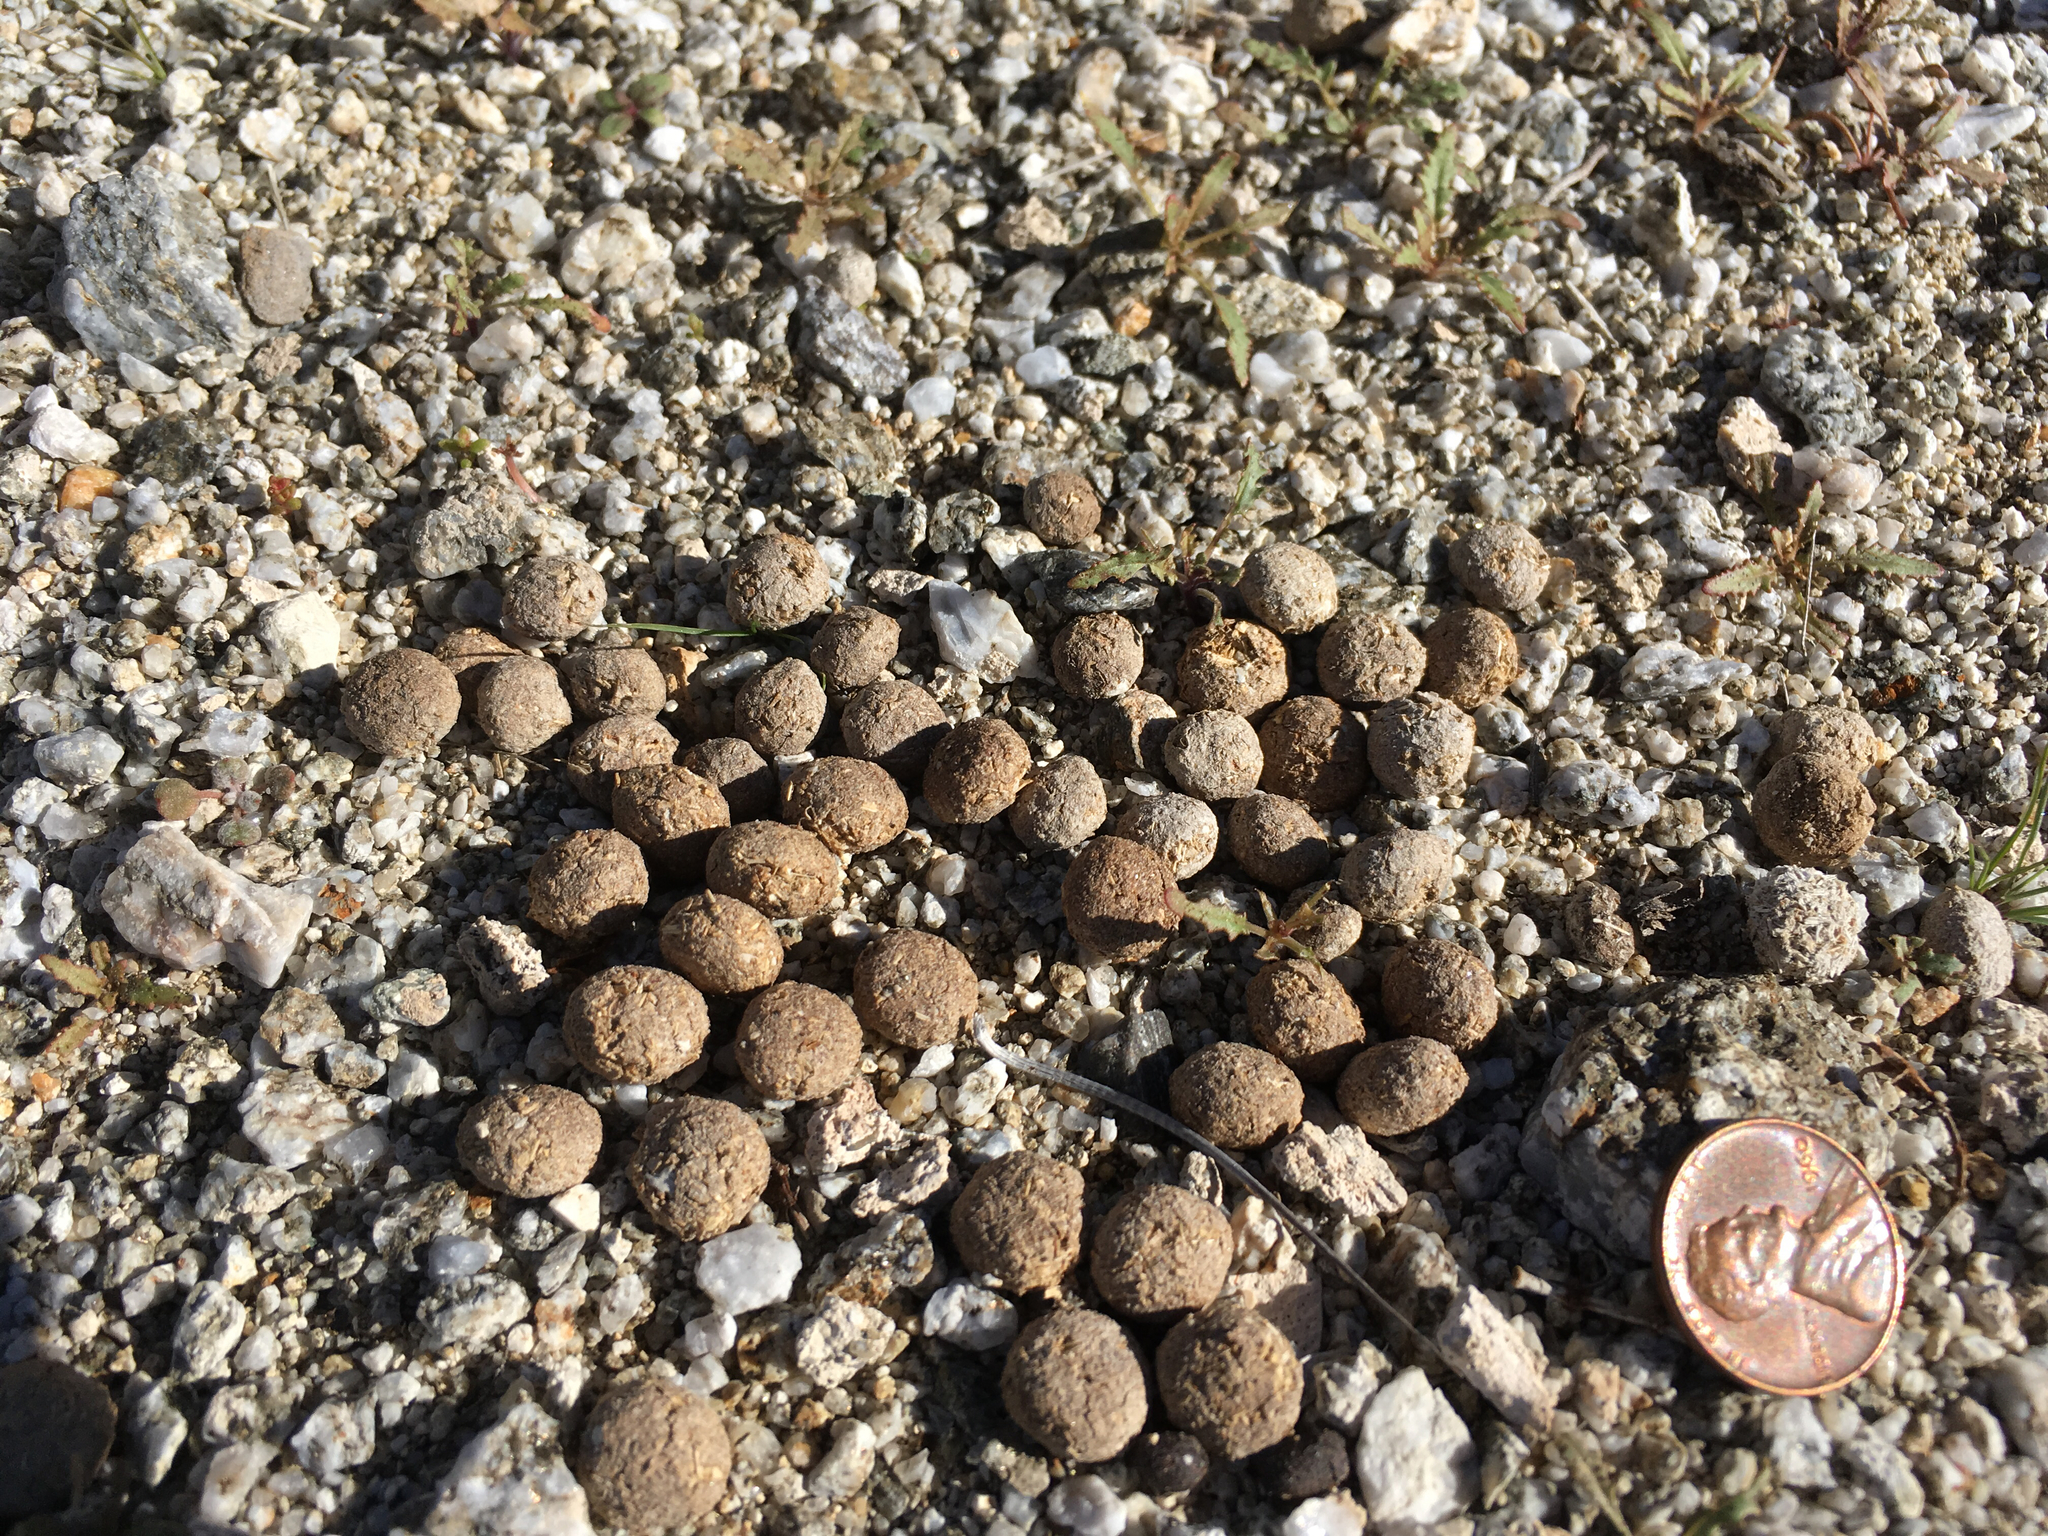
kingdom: Animalia
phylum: Chordata
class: Mammalia
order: Lagomorpha
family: Leporidae
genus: Lepus
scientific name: Lepus californicus
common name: Black-tailed jackrabbit
